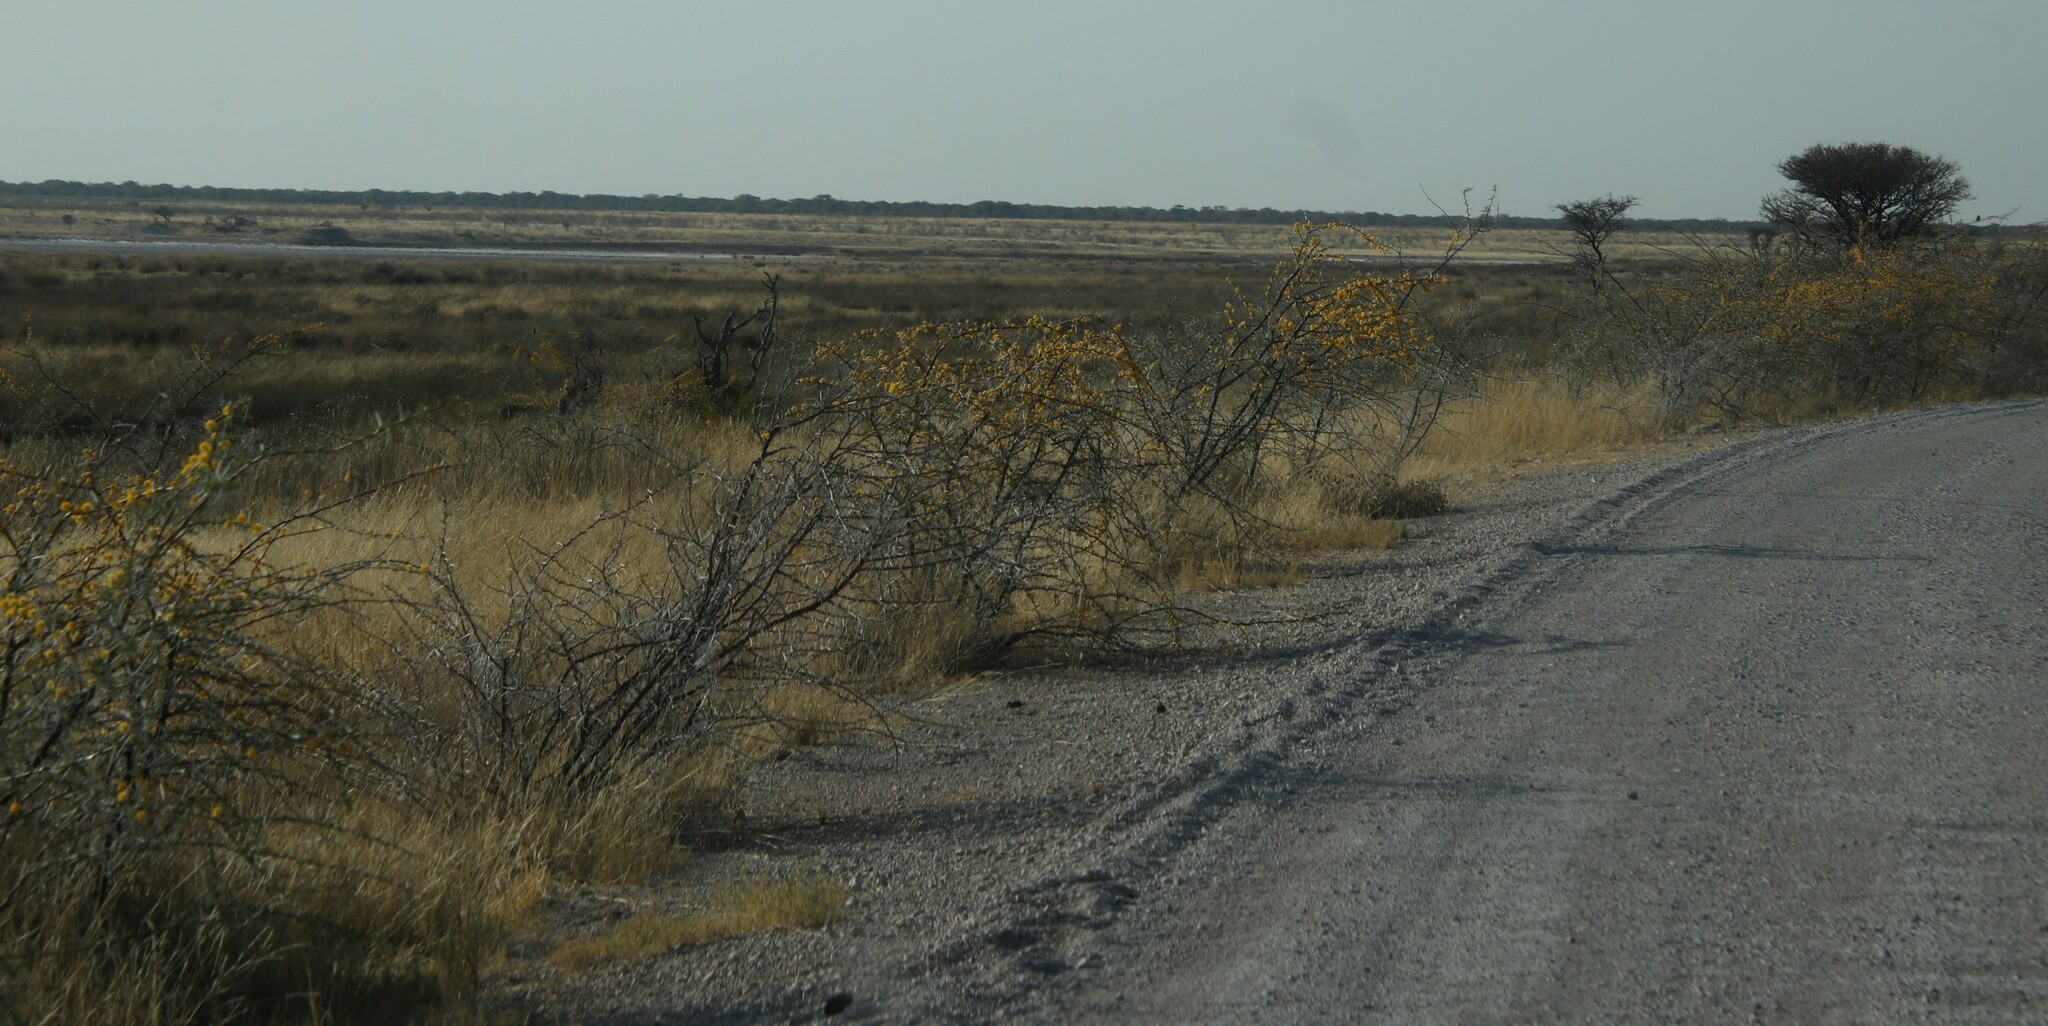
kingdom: Plantae
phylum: Tracheophyta
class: Magnoliopsida
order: Fabales
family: Fabaceae
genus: Vachellia
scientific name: Vachellia nebrownii
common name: Water acacia
